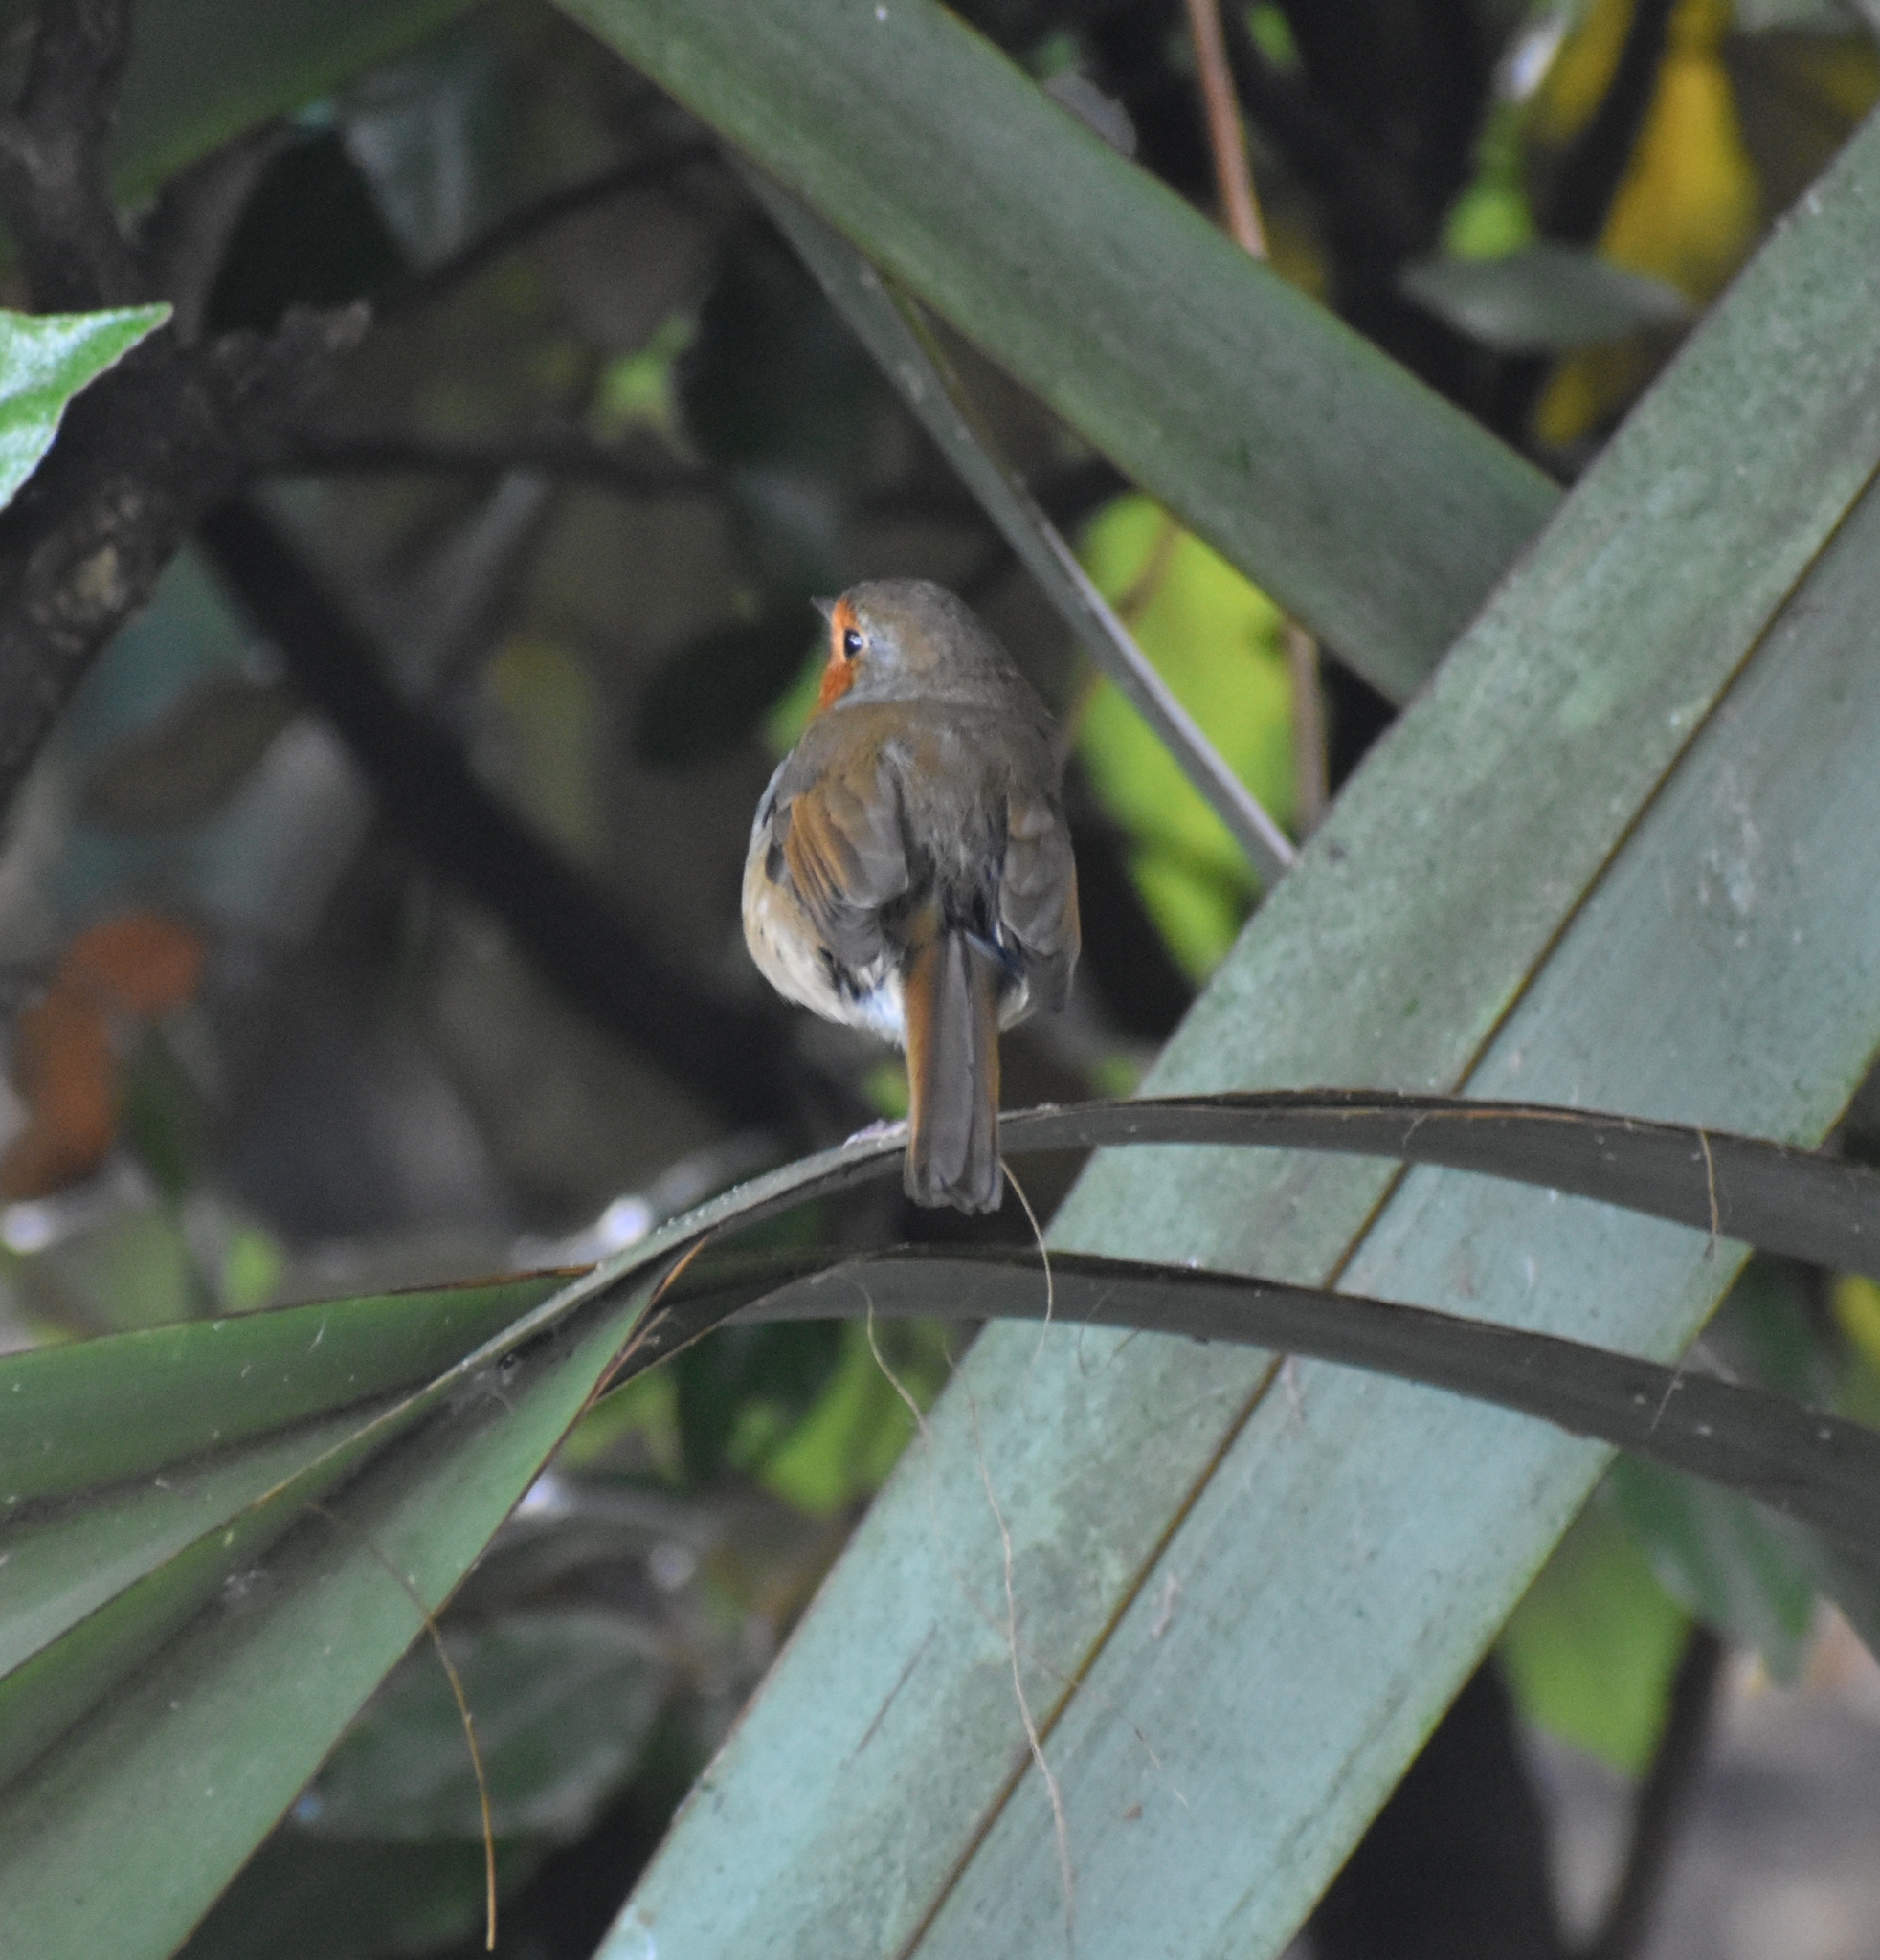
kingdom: Animalia
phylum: Chordata
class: Aves
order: Passeriformes
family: Muscicapidae
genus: Erithacus
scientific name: Erithacus rubecula
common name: European robin
